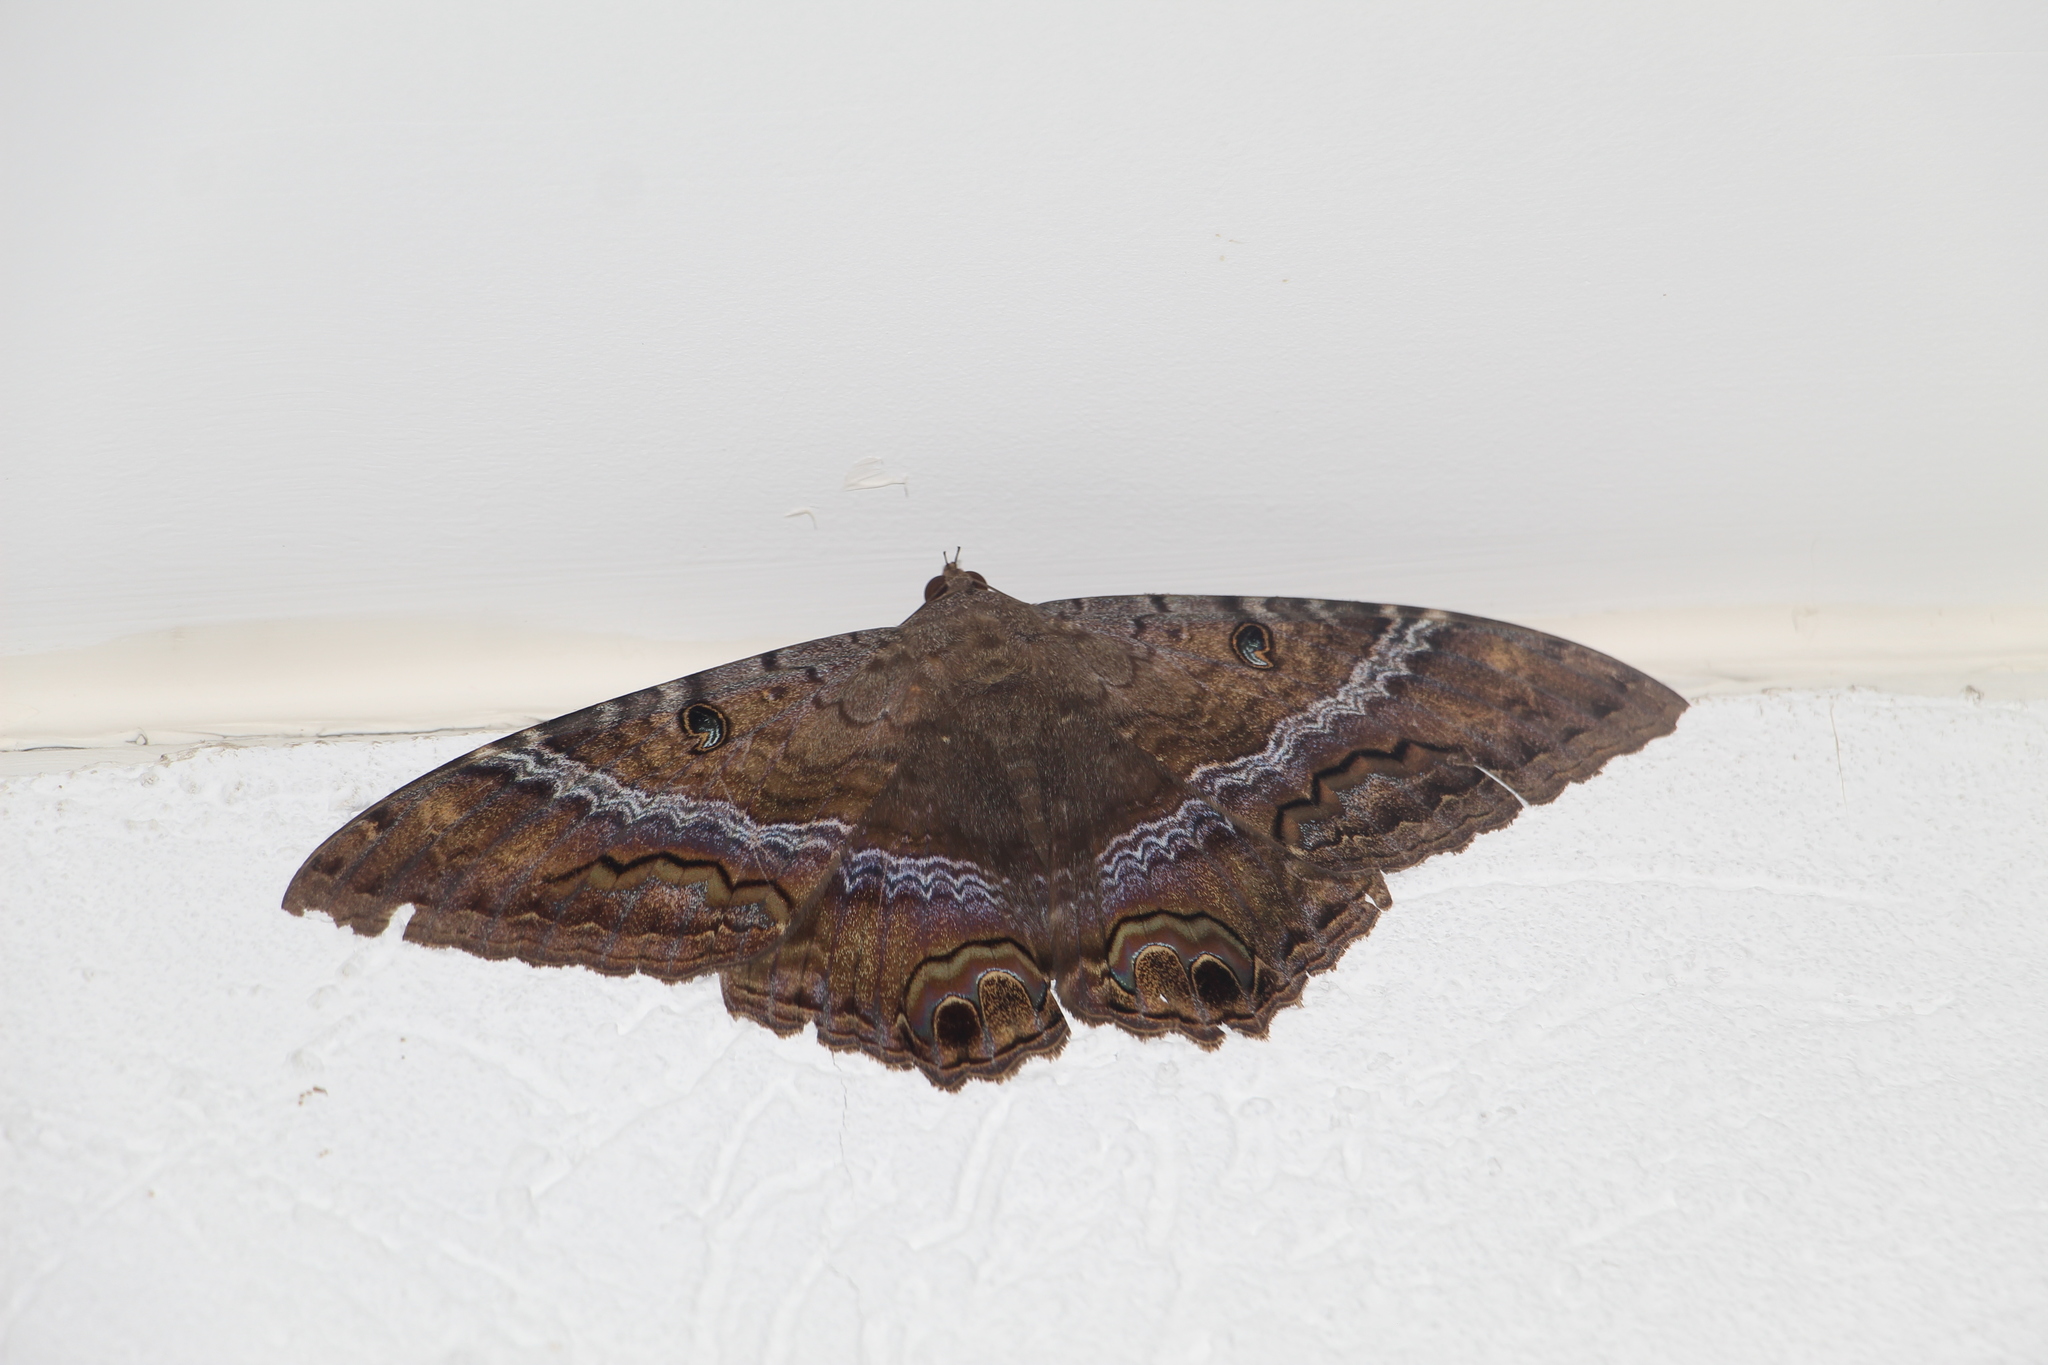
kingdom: Animalia
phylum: Arthropoda
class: Insecta
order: Lepidoptera
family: Erebidae
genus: Ascalapha
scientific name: Ascalapha odorata
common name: Black witch
